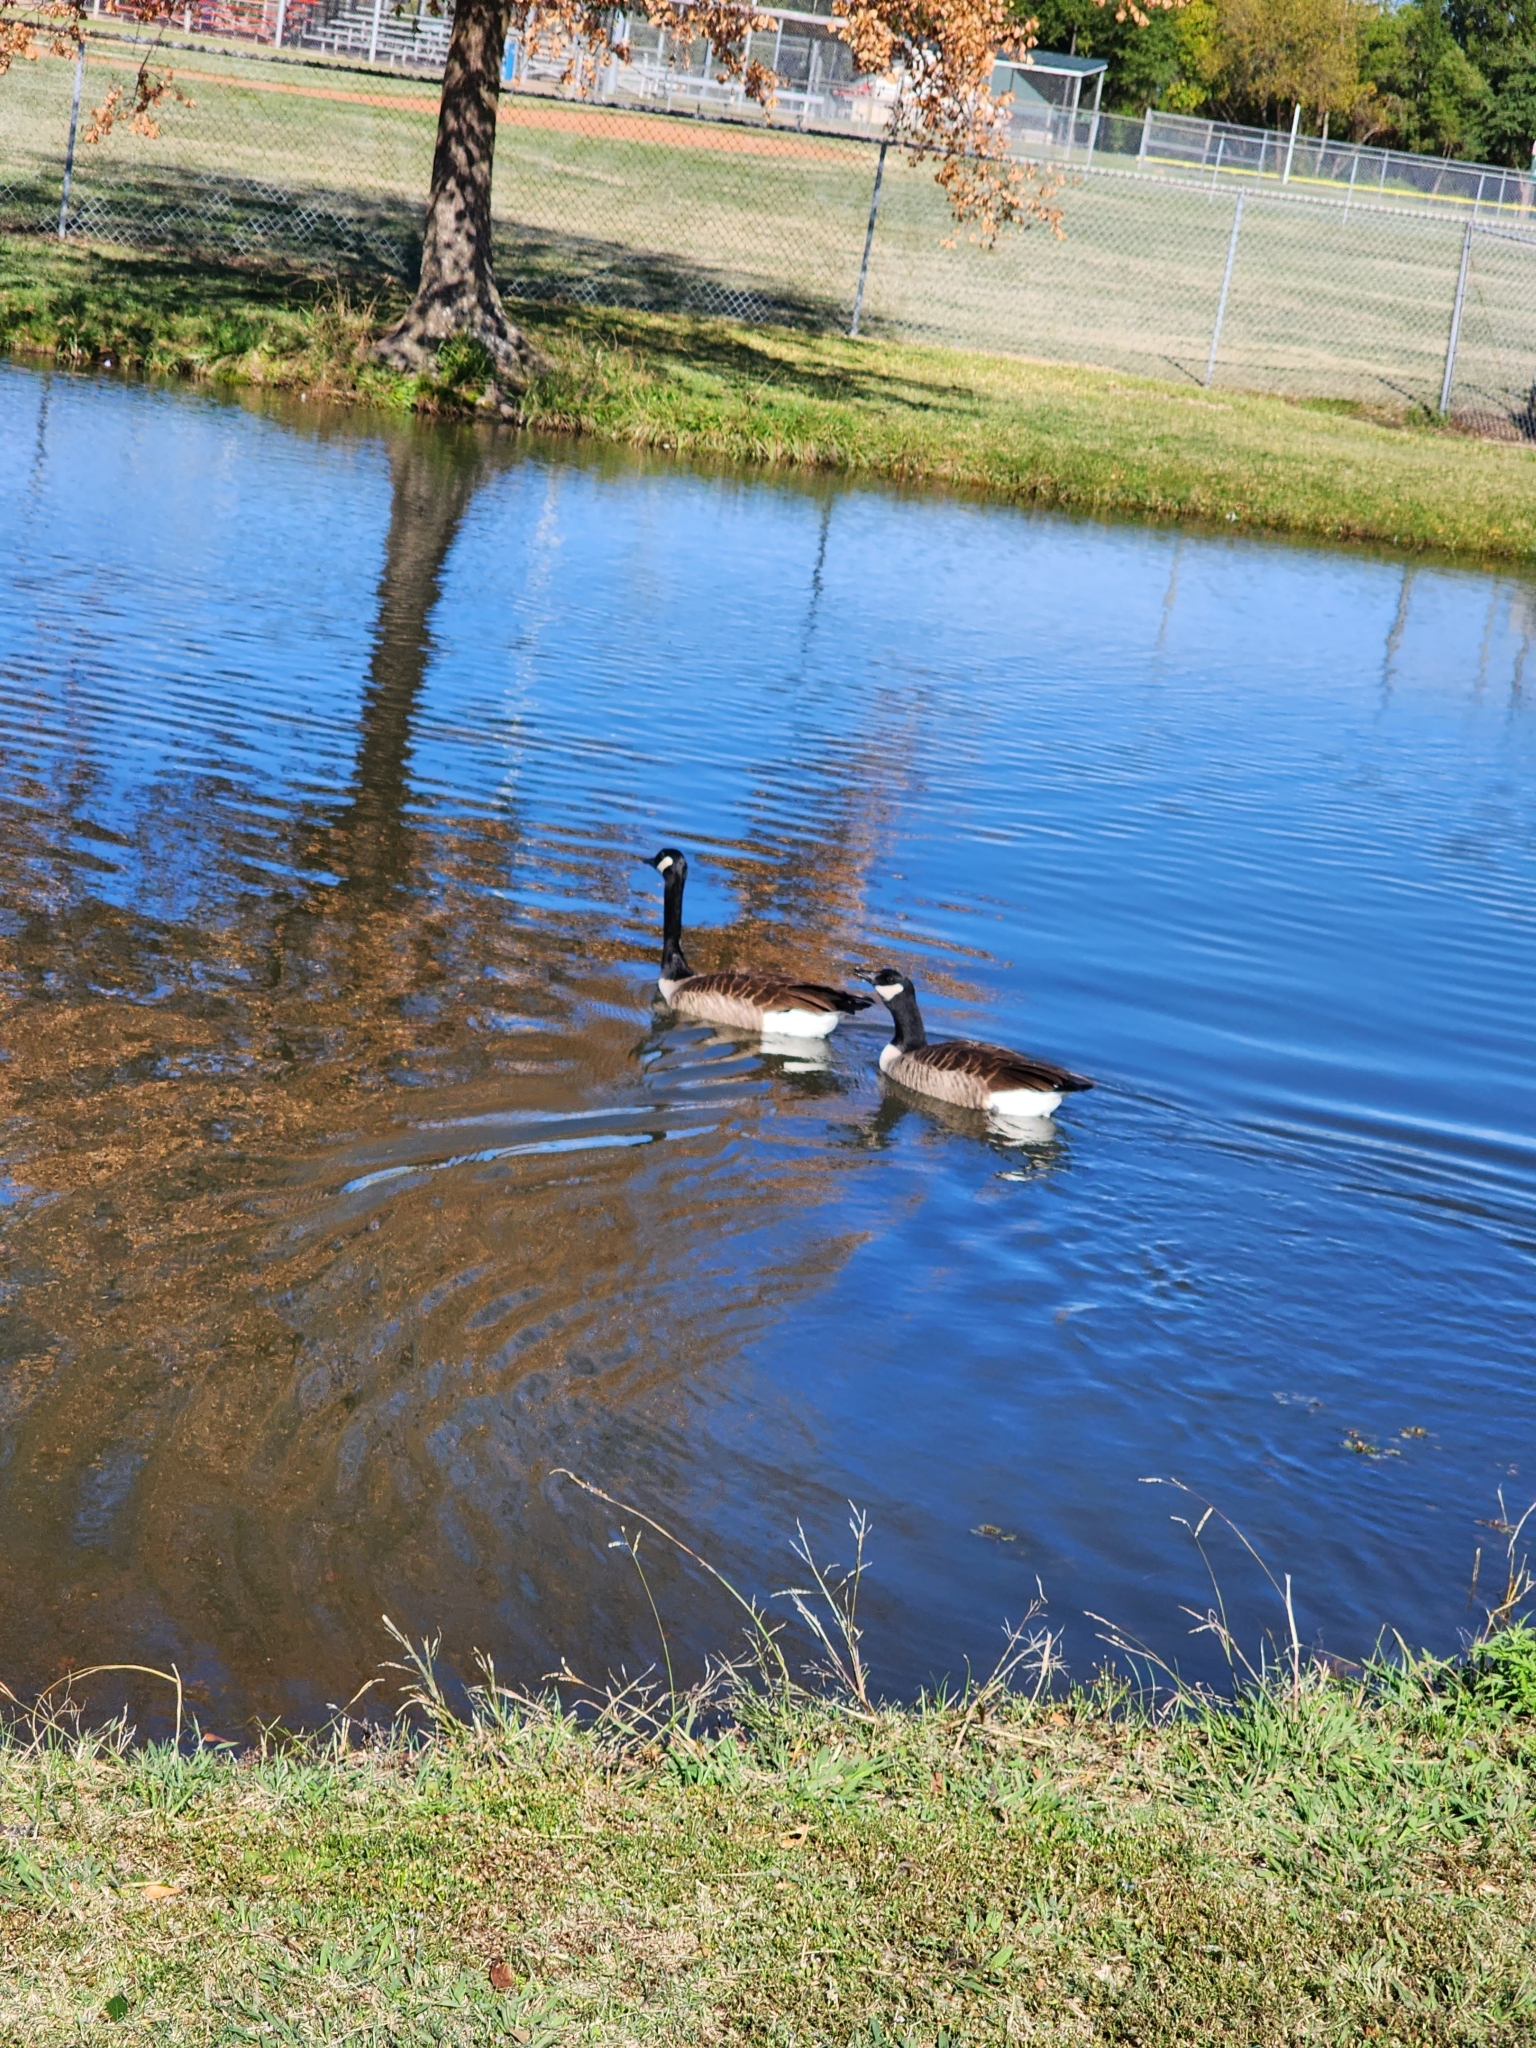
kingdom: Animalia
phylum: Chordata
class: Aves
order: Anseriformes
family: Anatidae
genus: Branta
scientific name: Branta canadensis
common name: Canada goose
